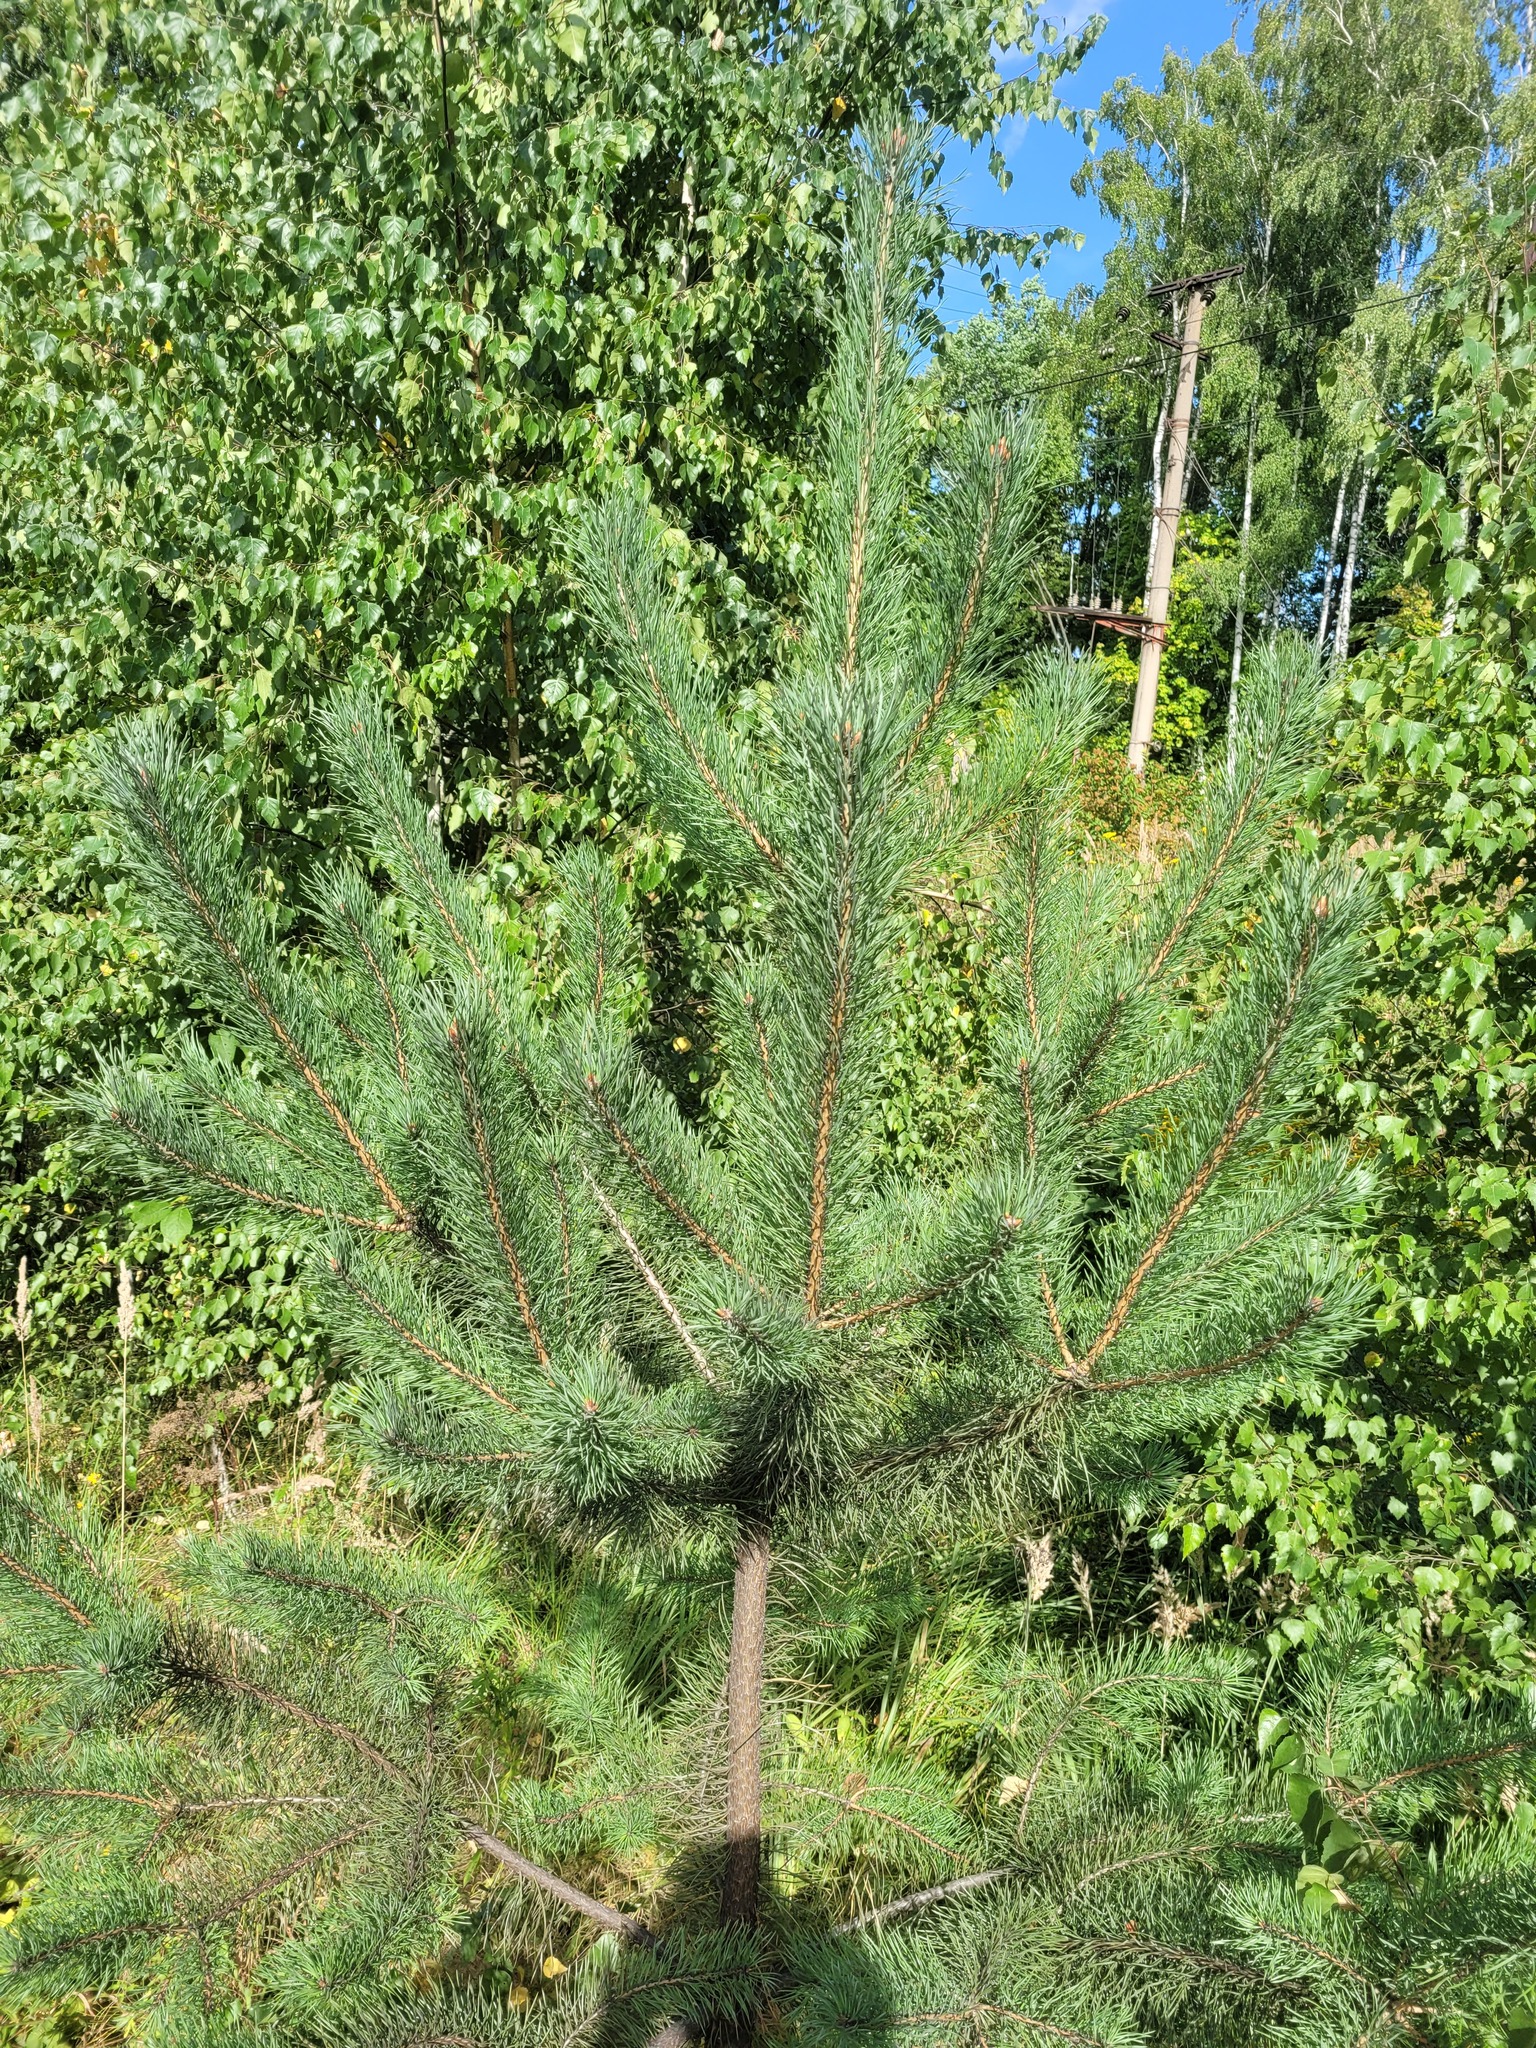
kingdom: Plantae
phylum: Tracheophyta
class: Pinopsida
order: Pinales
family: Pinaceae
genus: Pinus
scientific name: Pinus sylvestris
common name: Scots pine
